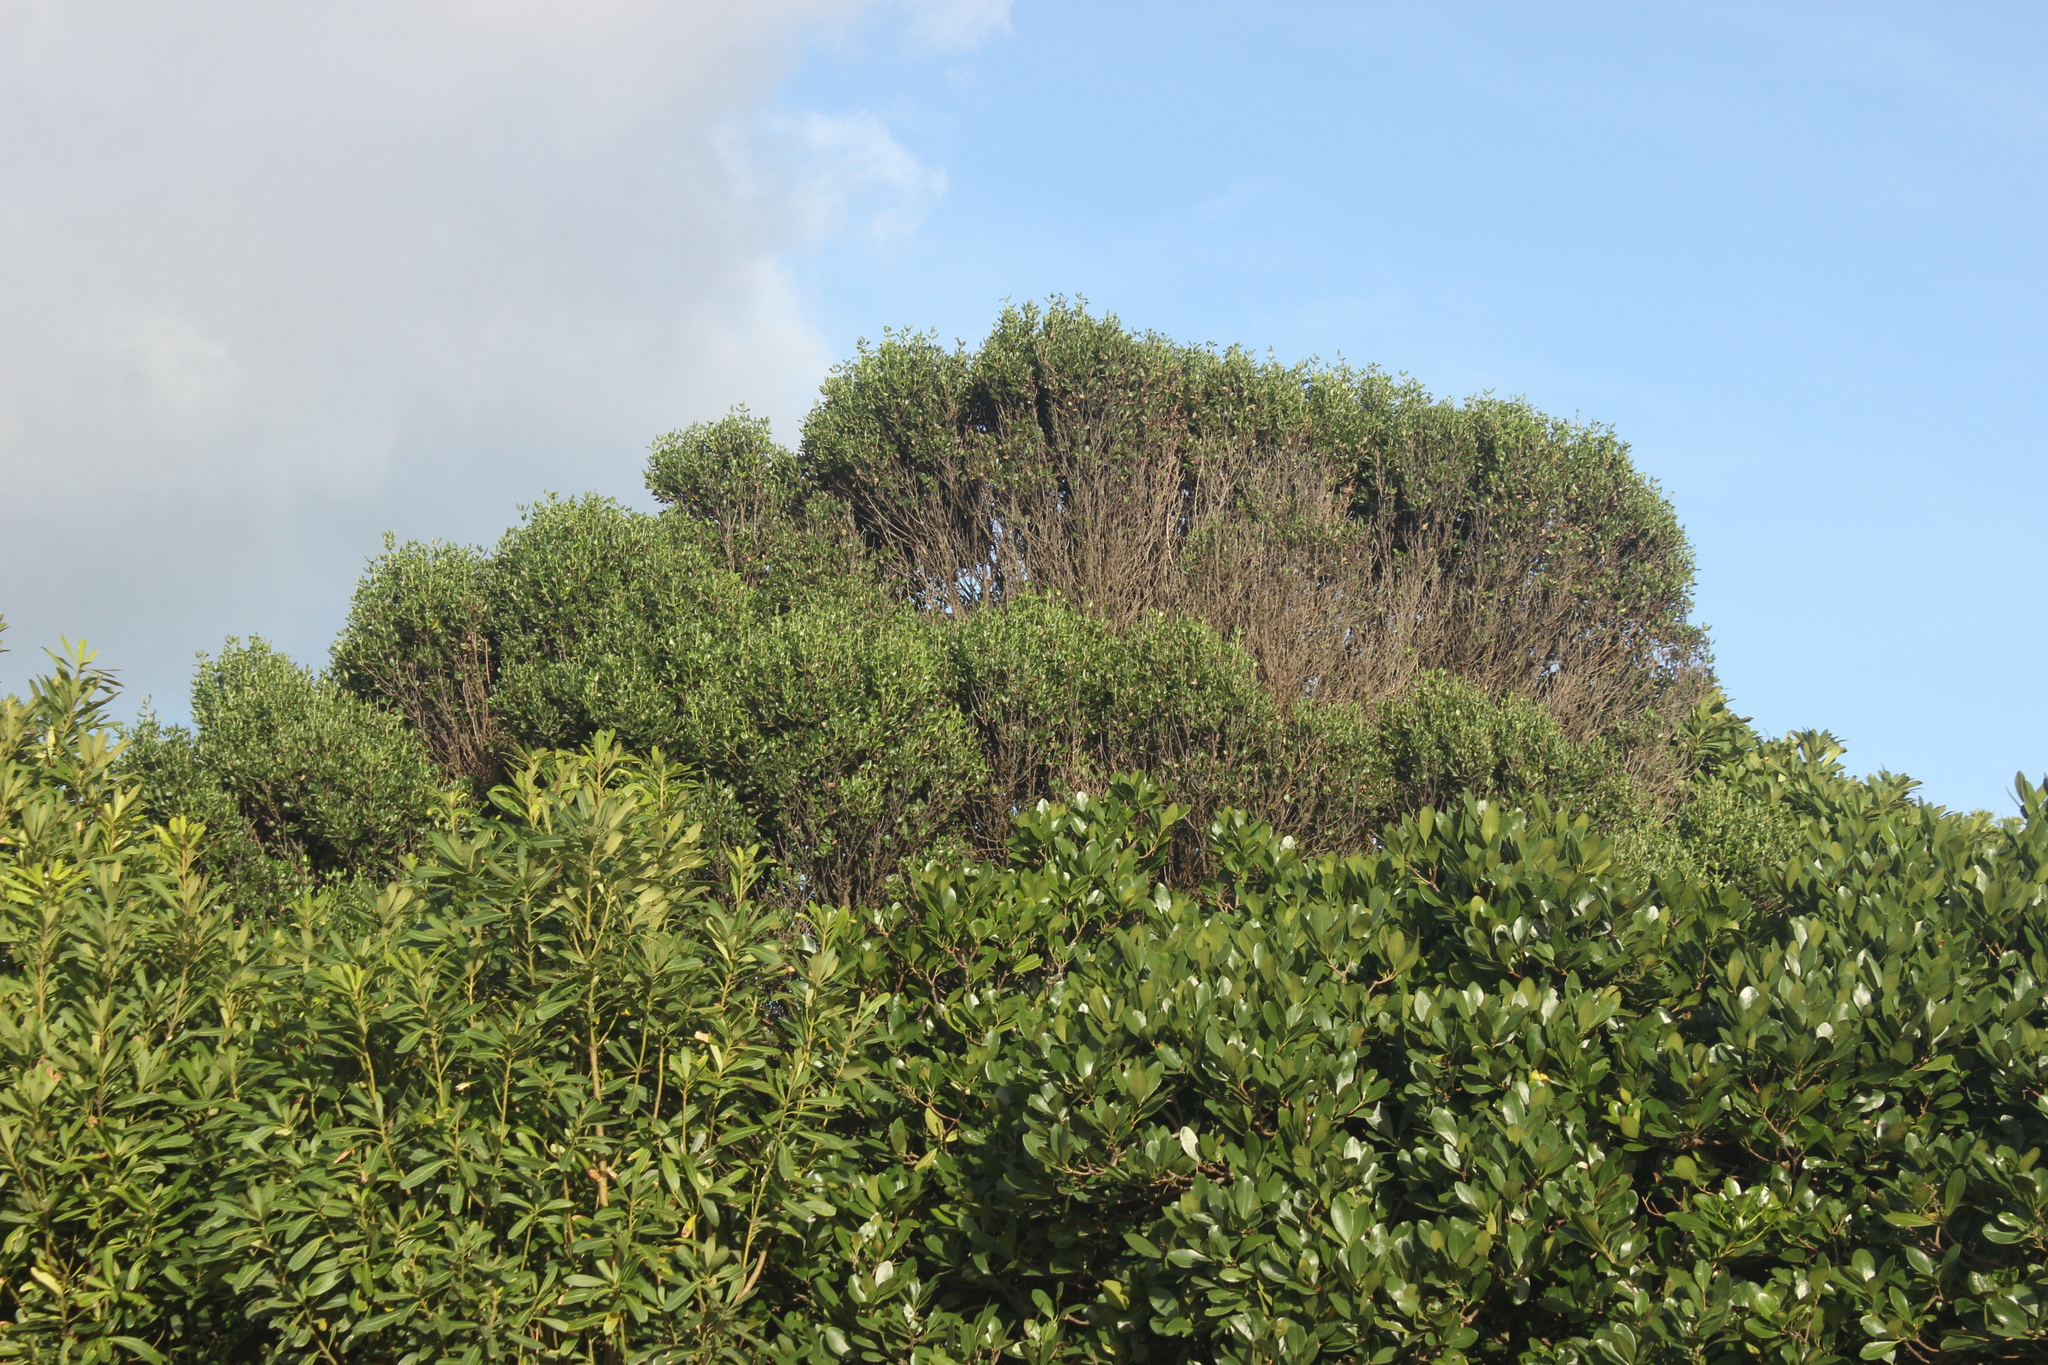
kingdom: Plantae
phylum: Tracheophyta
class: Magnoliopsida
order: Gentianales
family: Rubiaceae
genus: Coprosma
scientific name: Coprosma chathamica
